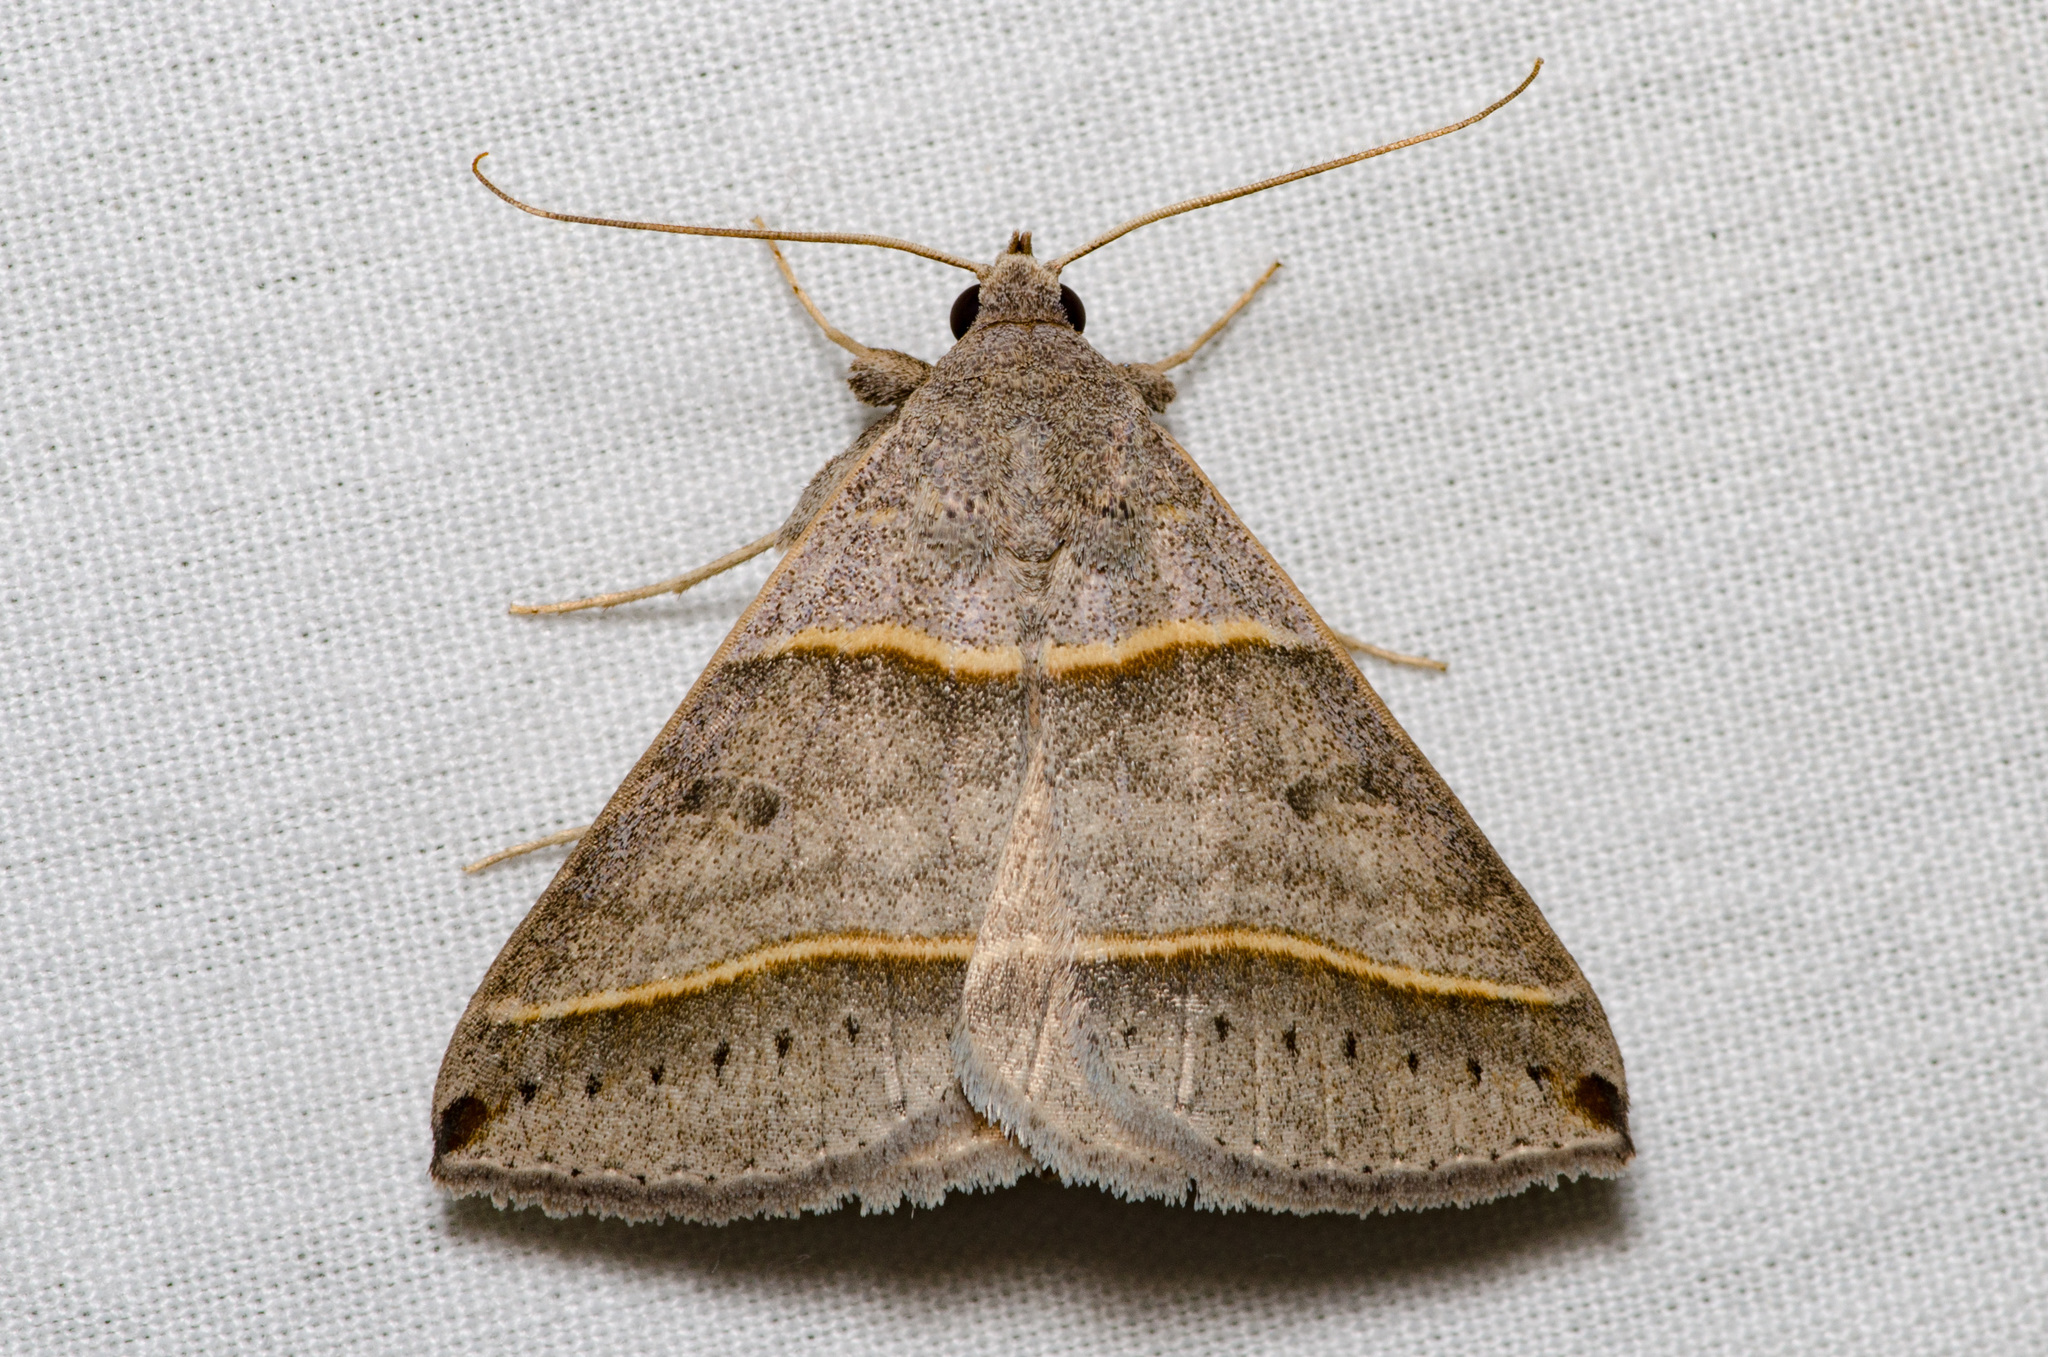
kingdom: Animalia
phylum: Arthropoda
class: Insecta
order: Lepidoptera
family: Erebidae
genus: Ptichodis
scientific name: Ptichodis vinculum
